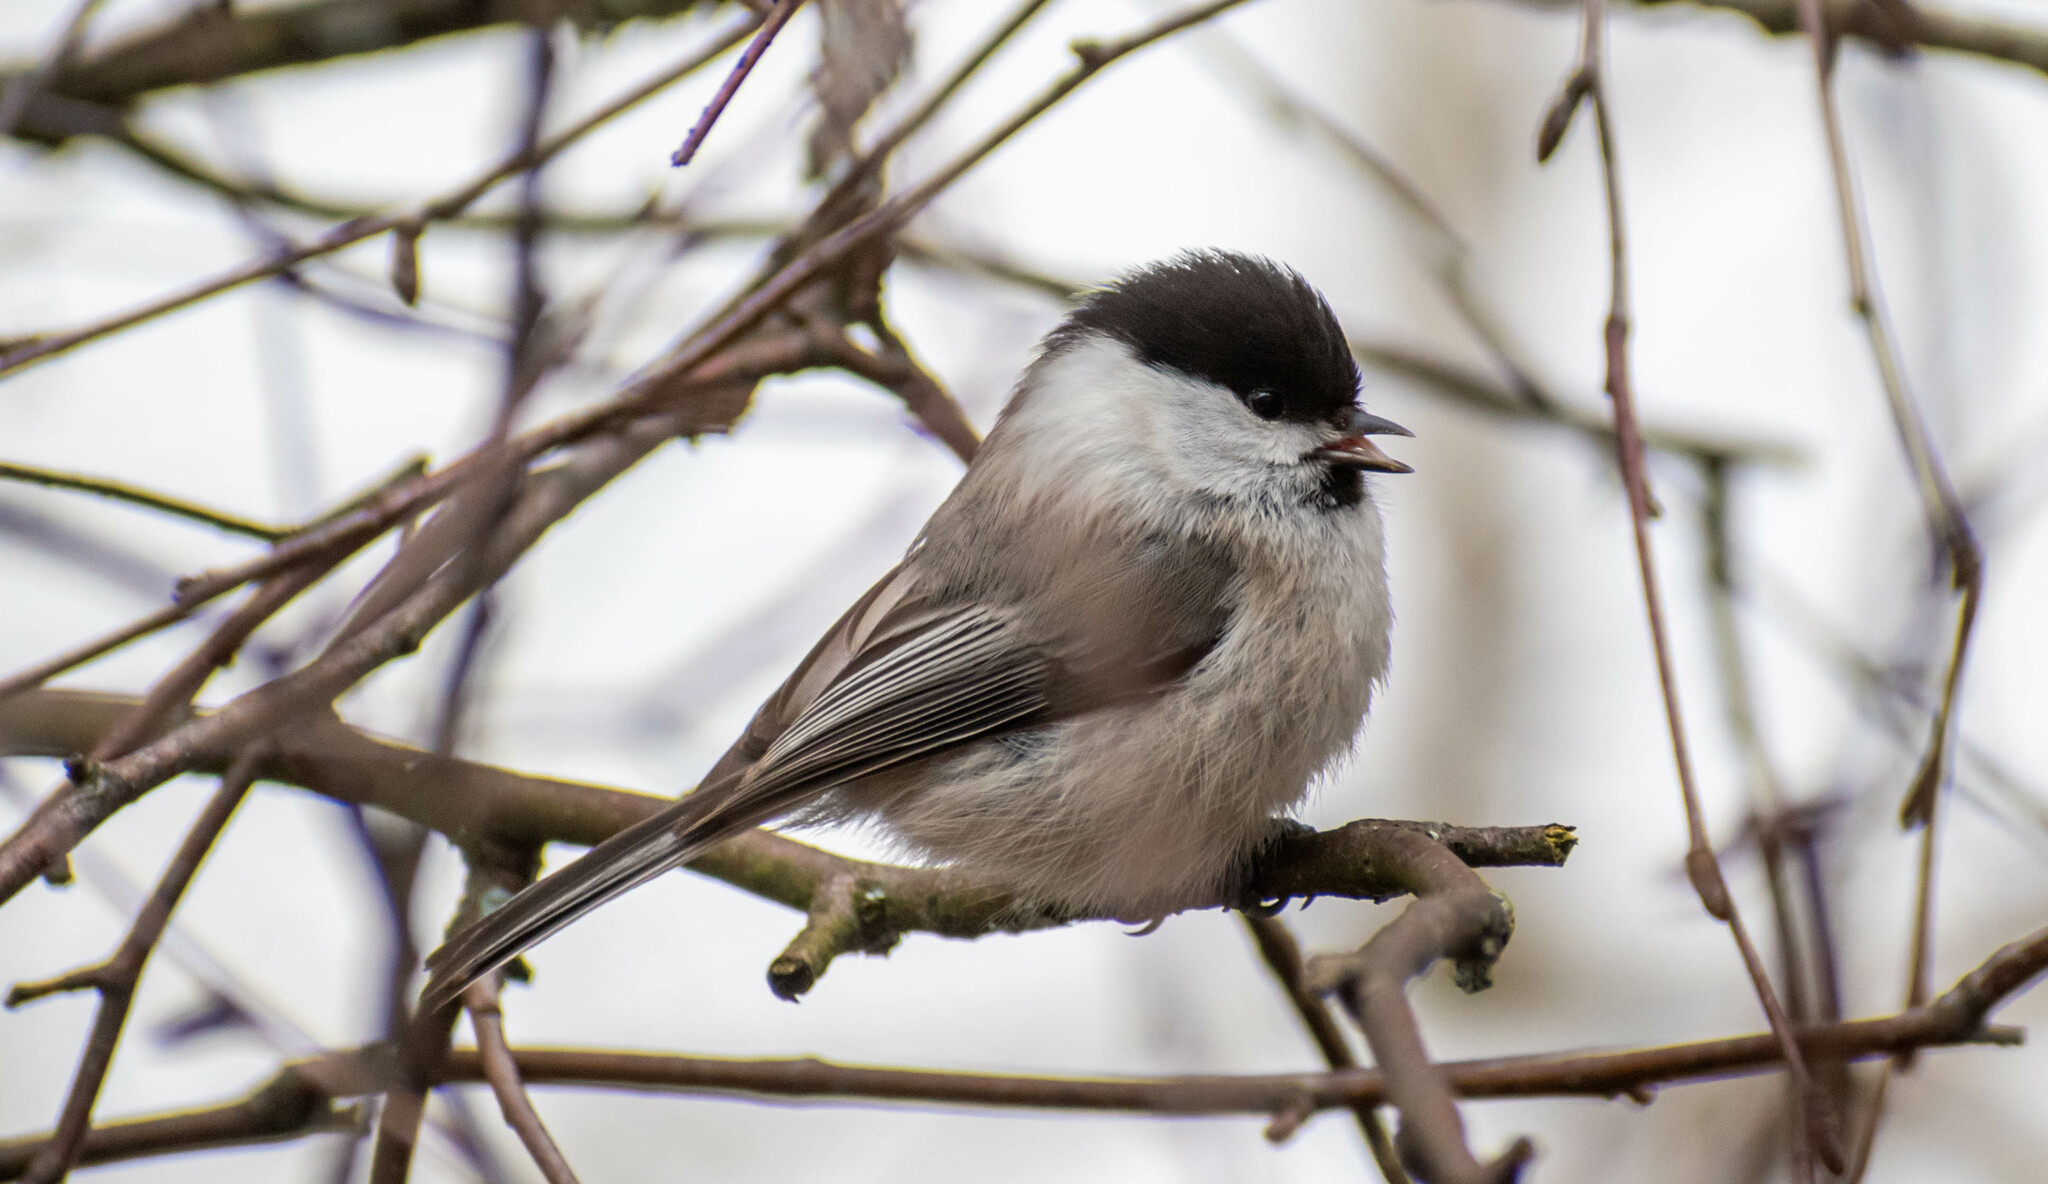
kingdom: Animalia
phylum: Chordata
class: Aves
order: Passeriformes
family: Paridae
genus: Poecile
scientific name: Poecile montanus
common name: Willow tit
